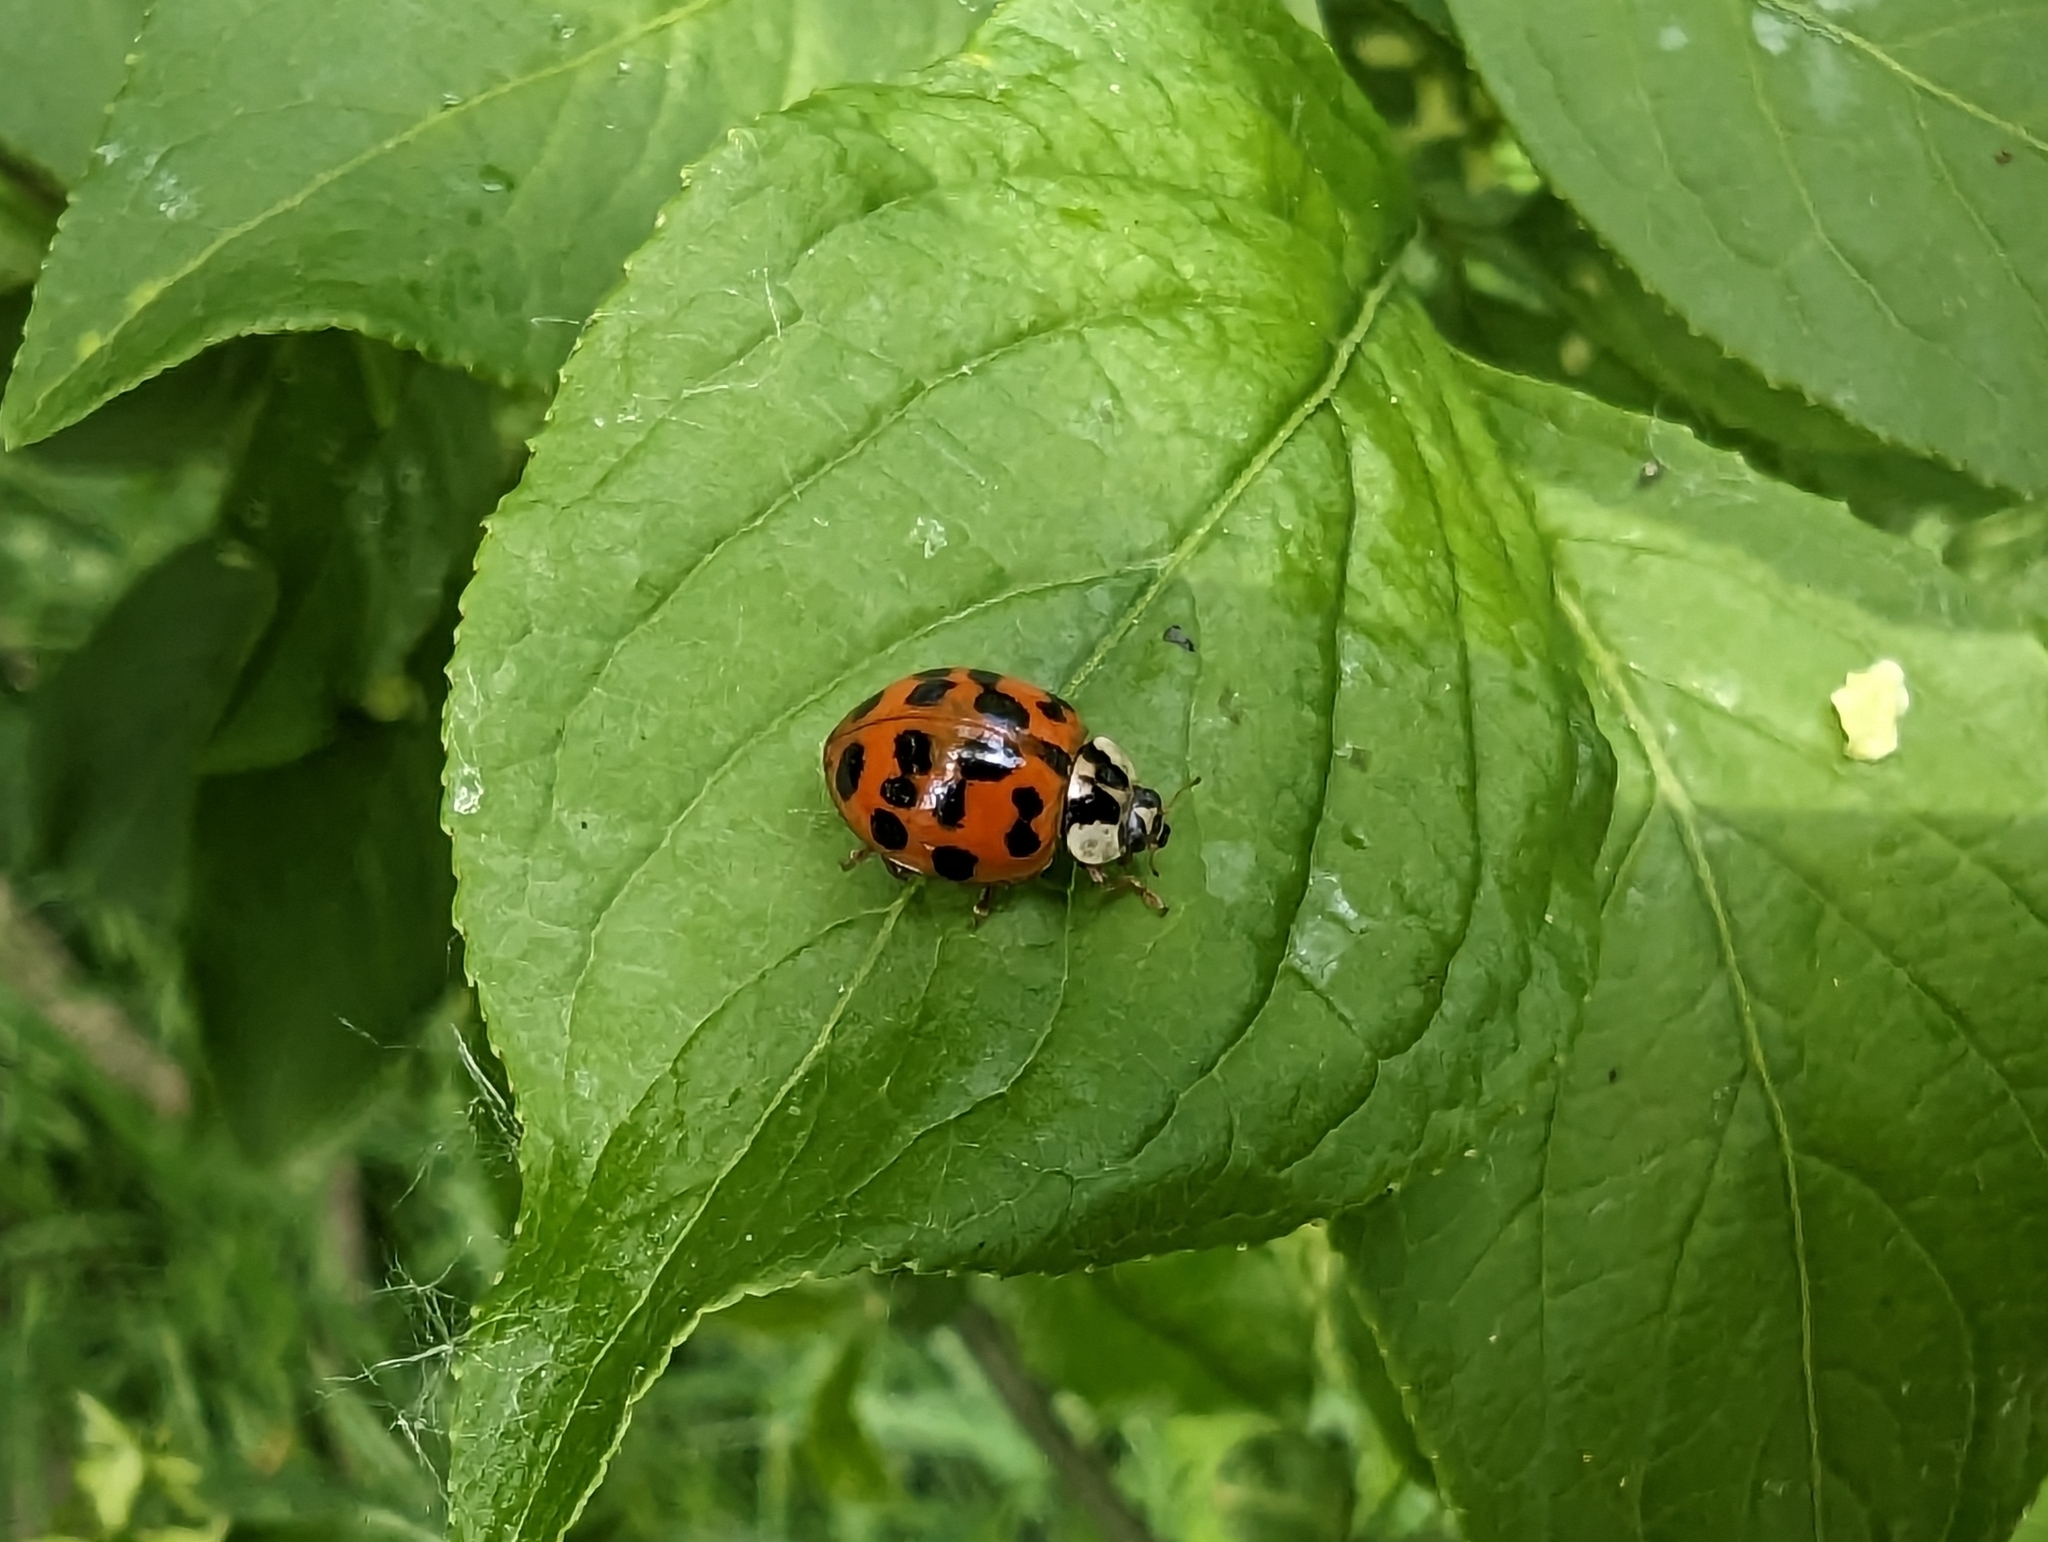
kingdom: Animalia
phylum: Arthropoda
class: Insecta
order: Coleoptera
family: Coccinellidae
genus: Harmonia
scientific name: Harmonia axyridis
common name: Harlequin ladybird
